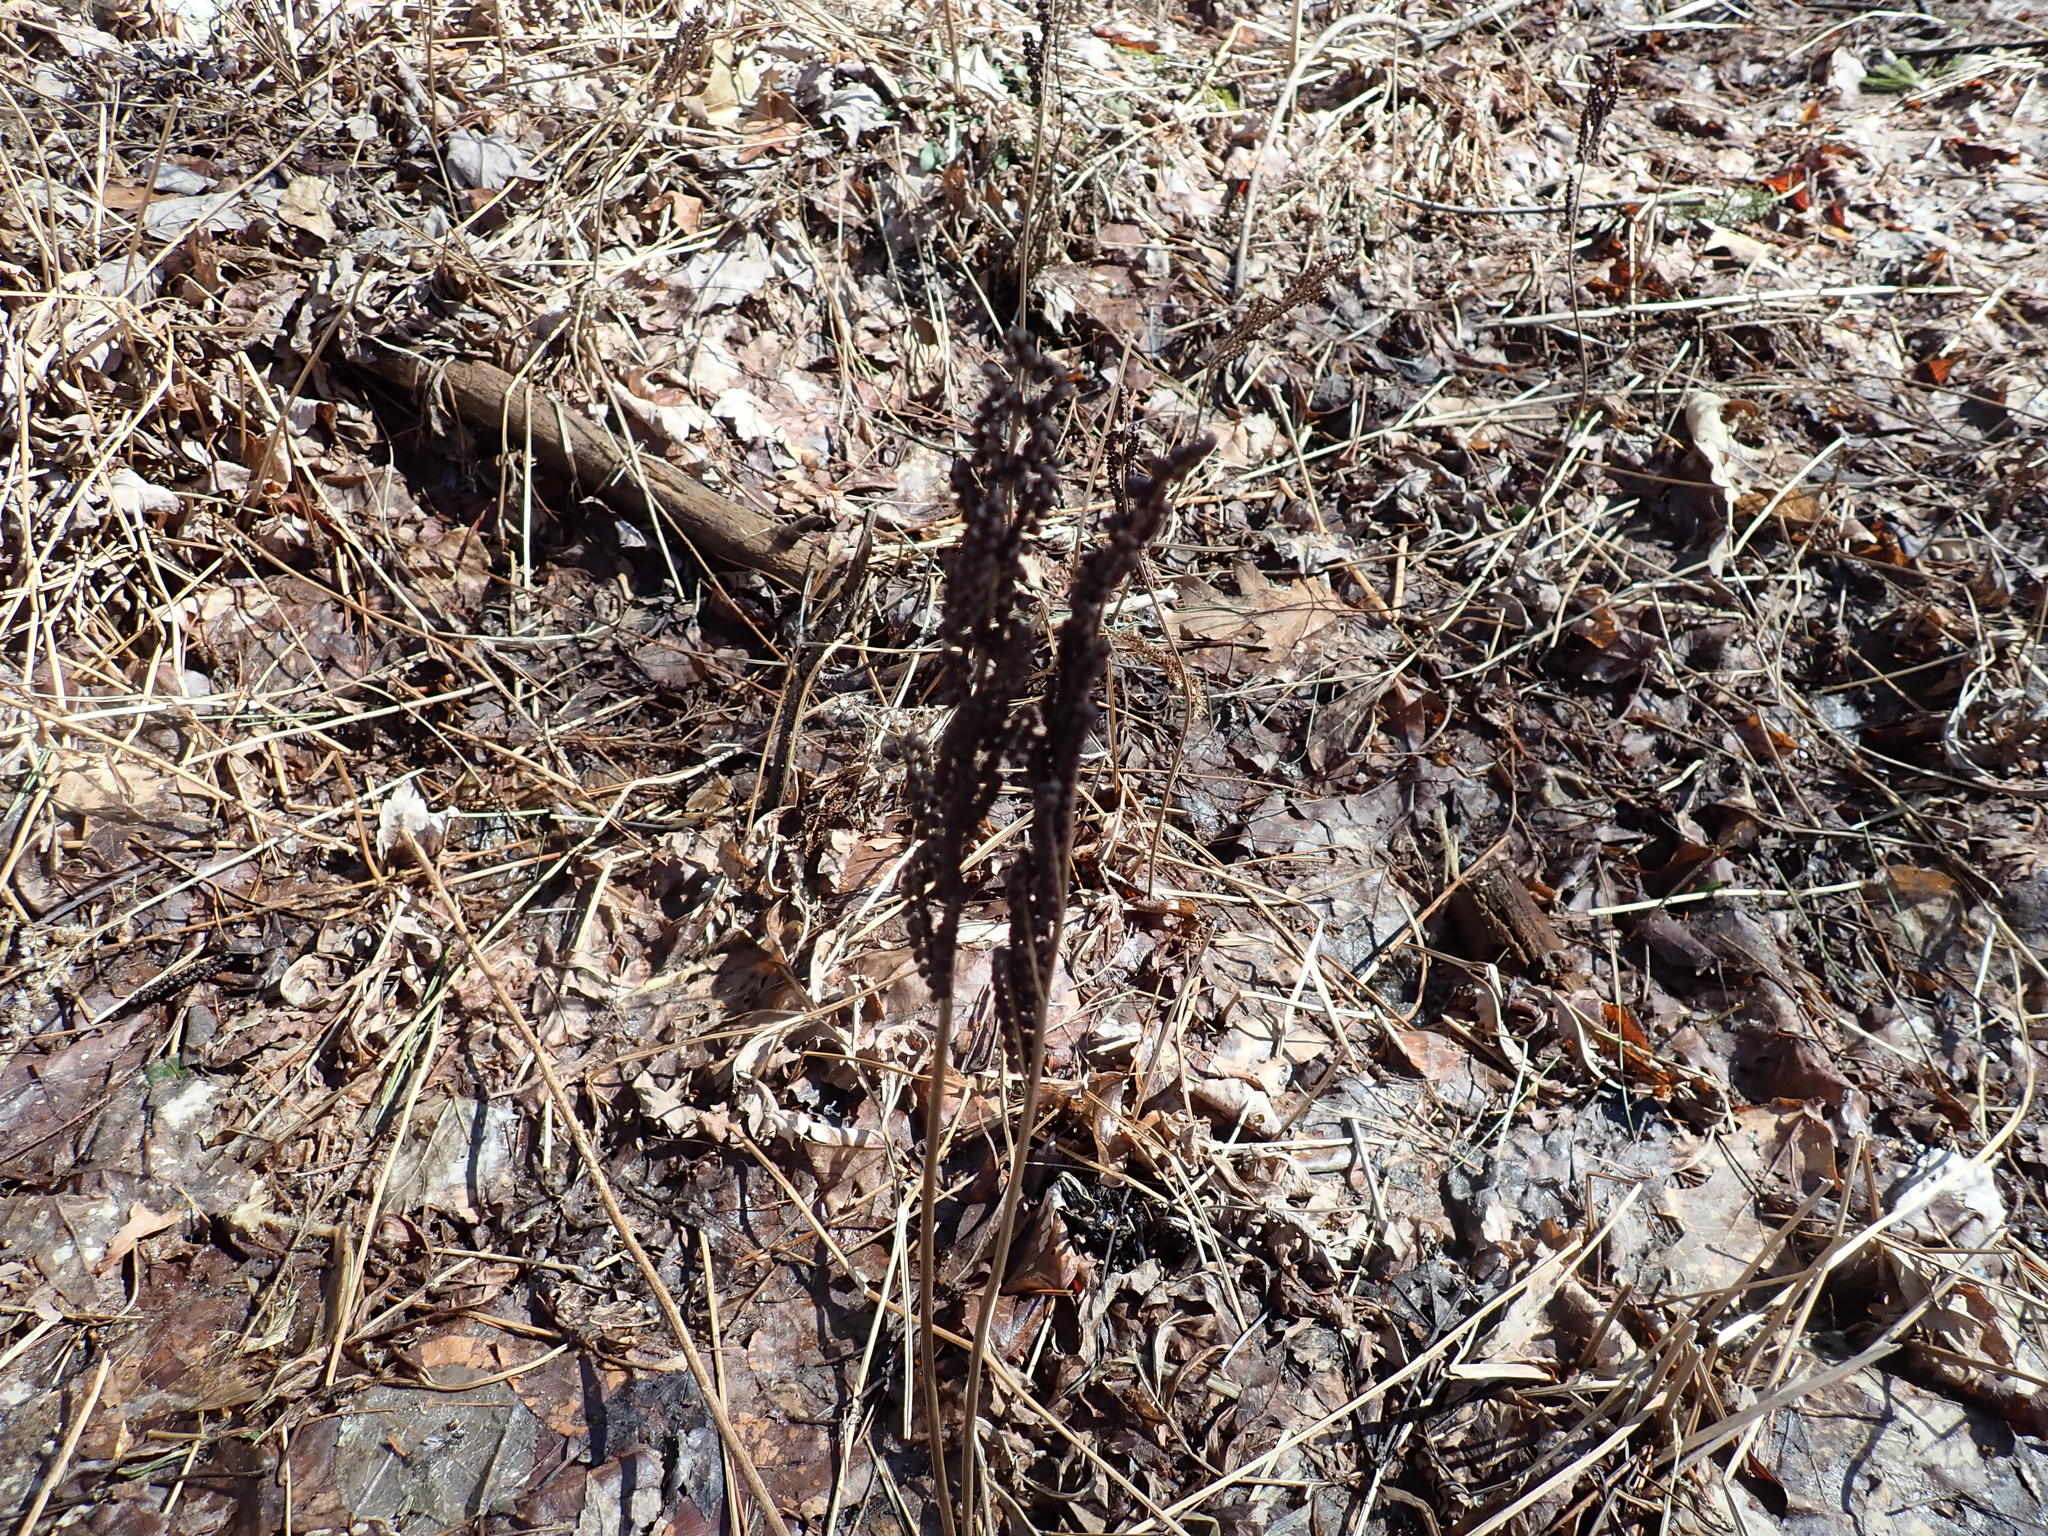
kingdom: Plantae
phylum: Tracheophyta
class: Polypodiopsida
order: Polypodiales
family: Onocleaceae
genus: Onoclea
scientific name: Onoclea sensibilis
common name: Sensitive fern
